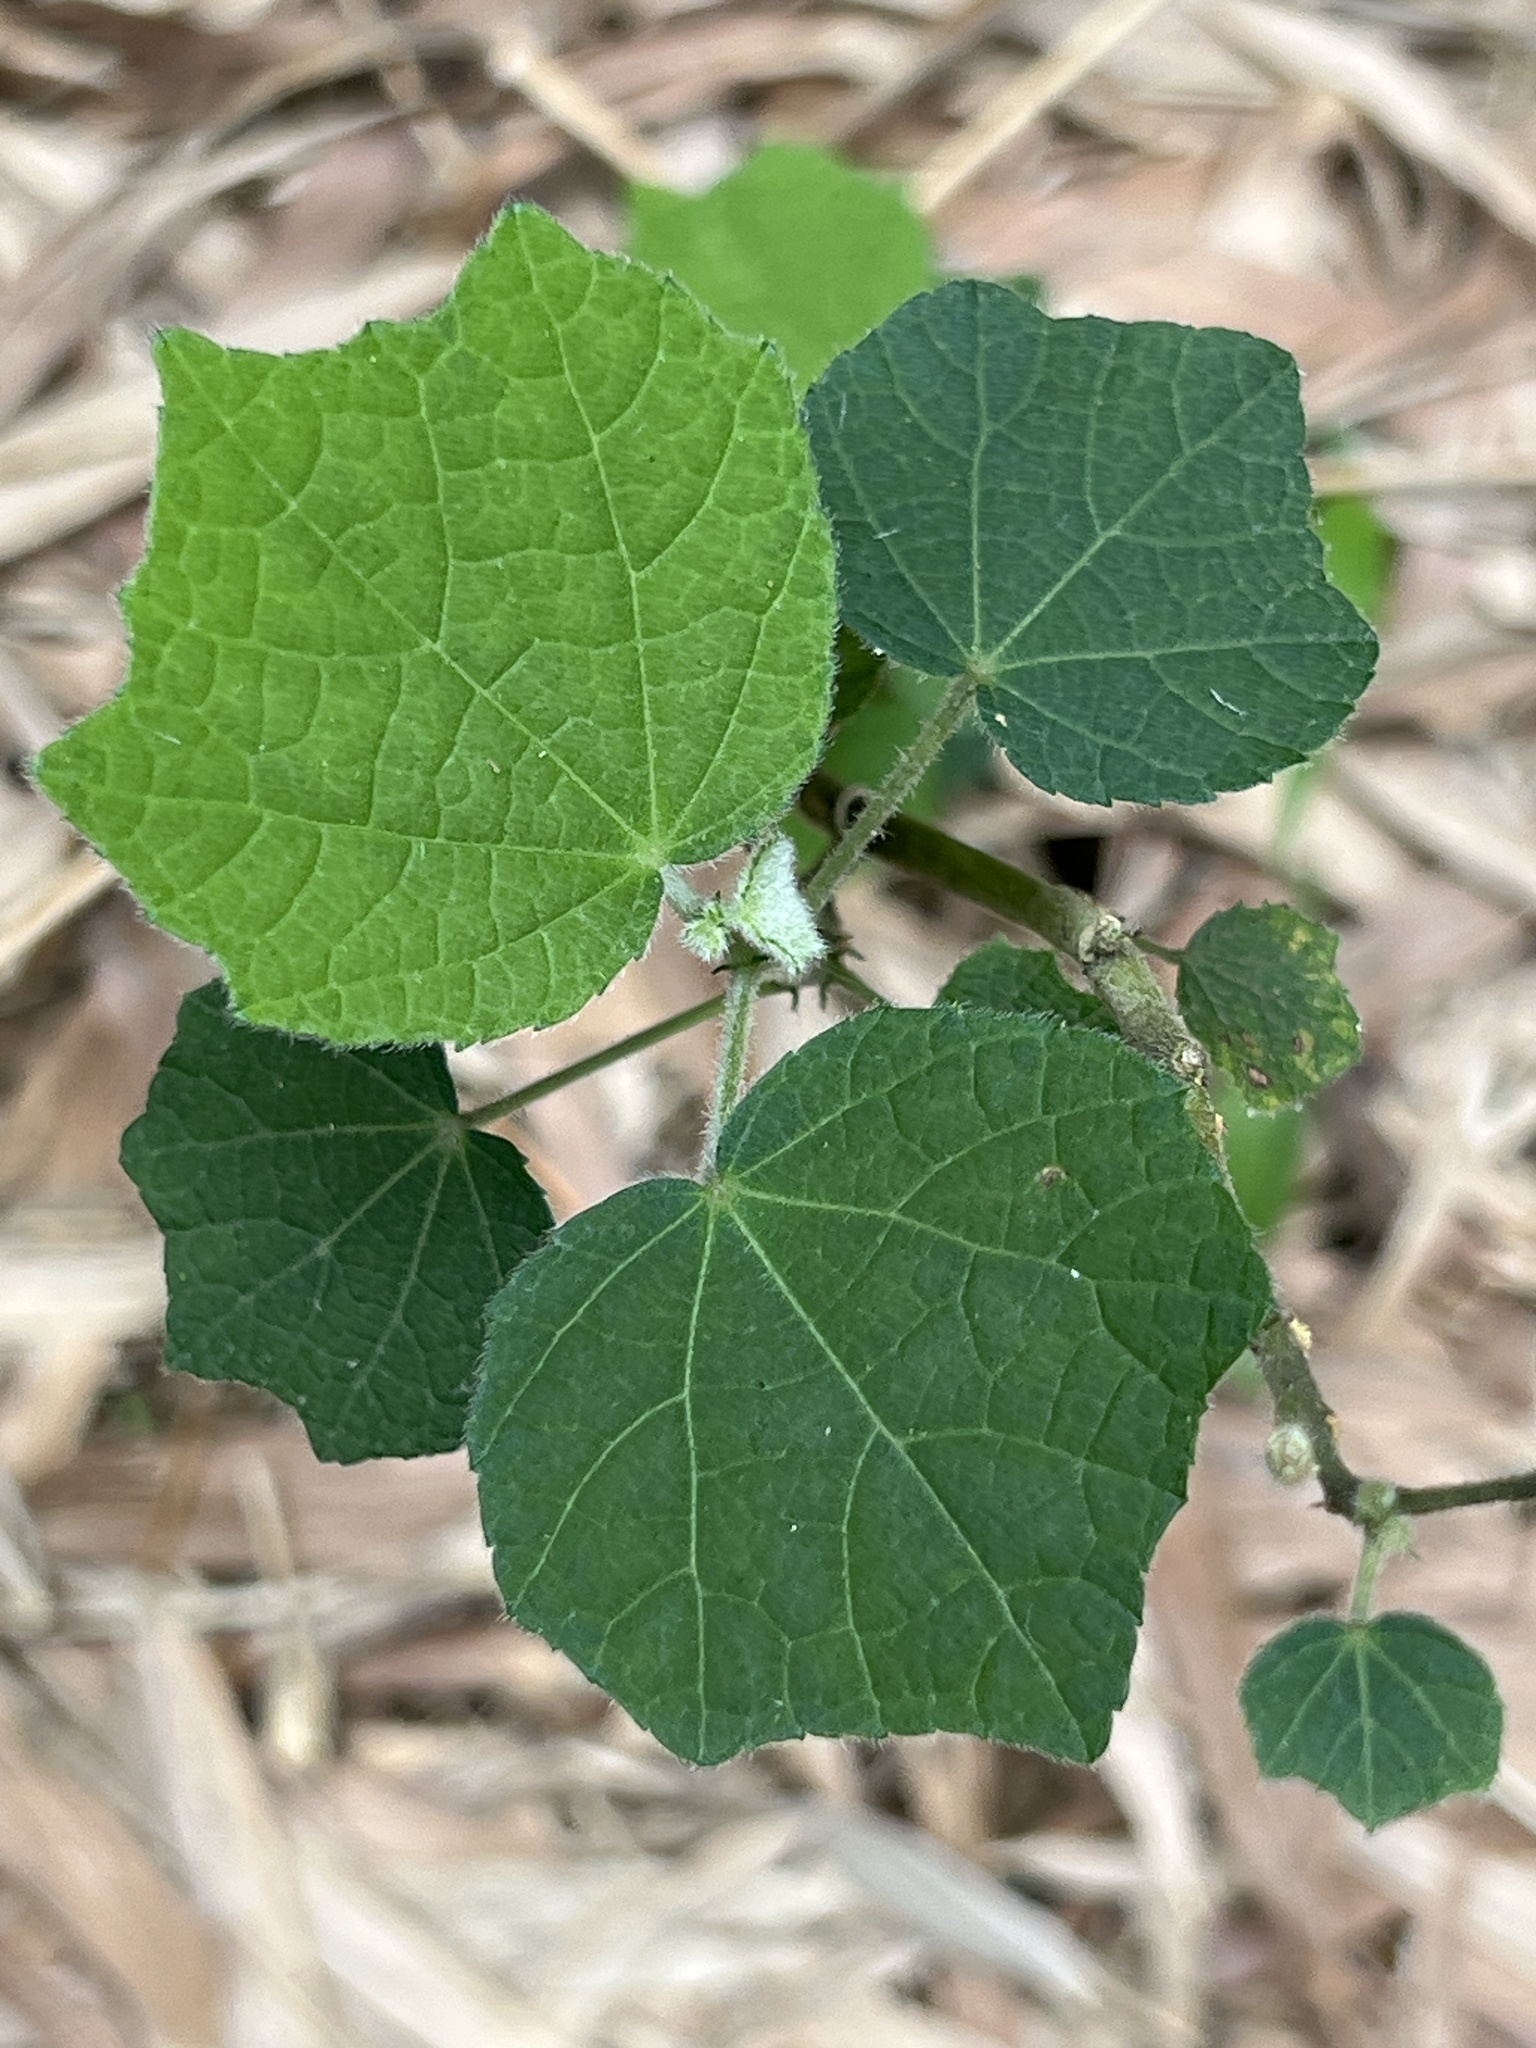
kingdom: Plantae
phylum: Tracheophyta
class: Magnoliopsida
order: Malvales
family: Malvaceae
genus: Urena
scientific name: Urena lobata
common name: Caesarweed
